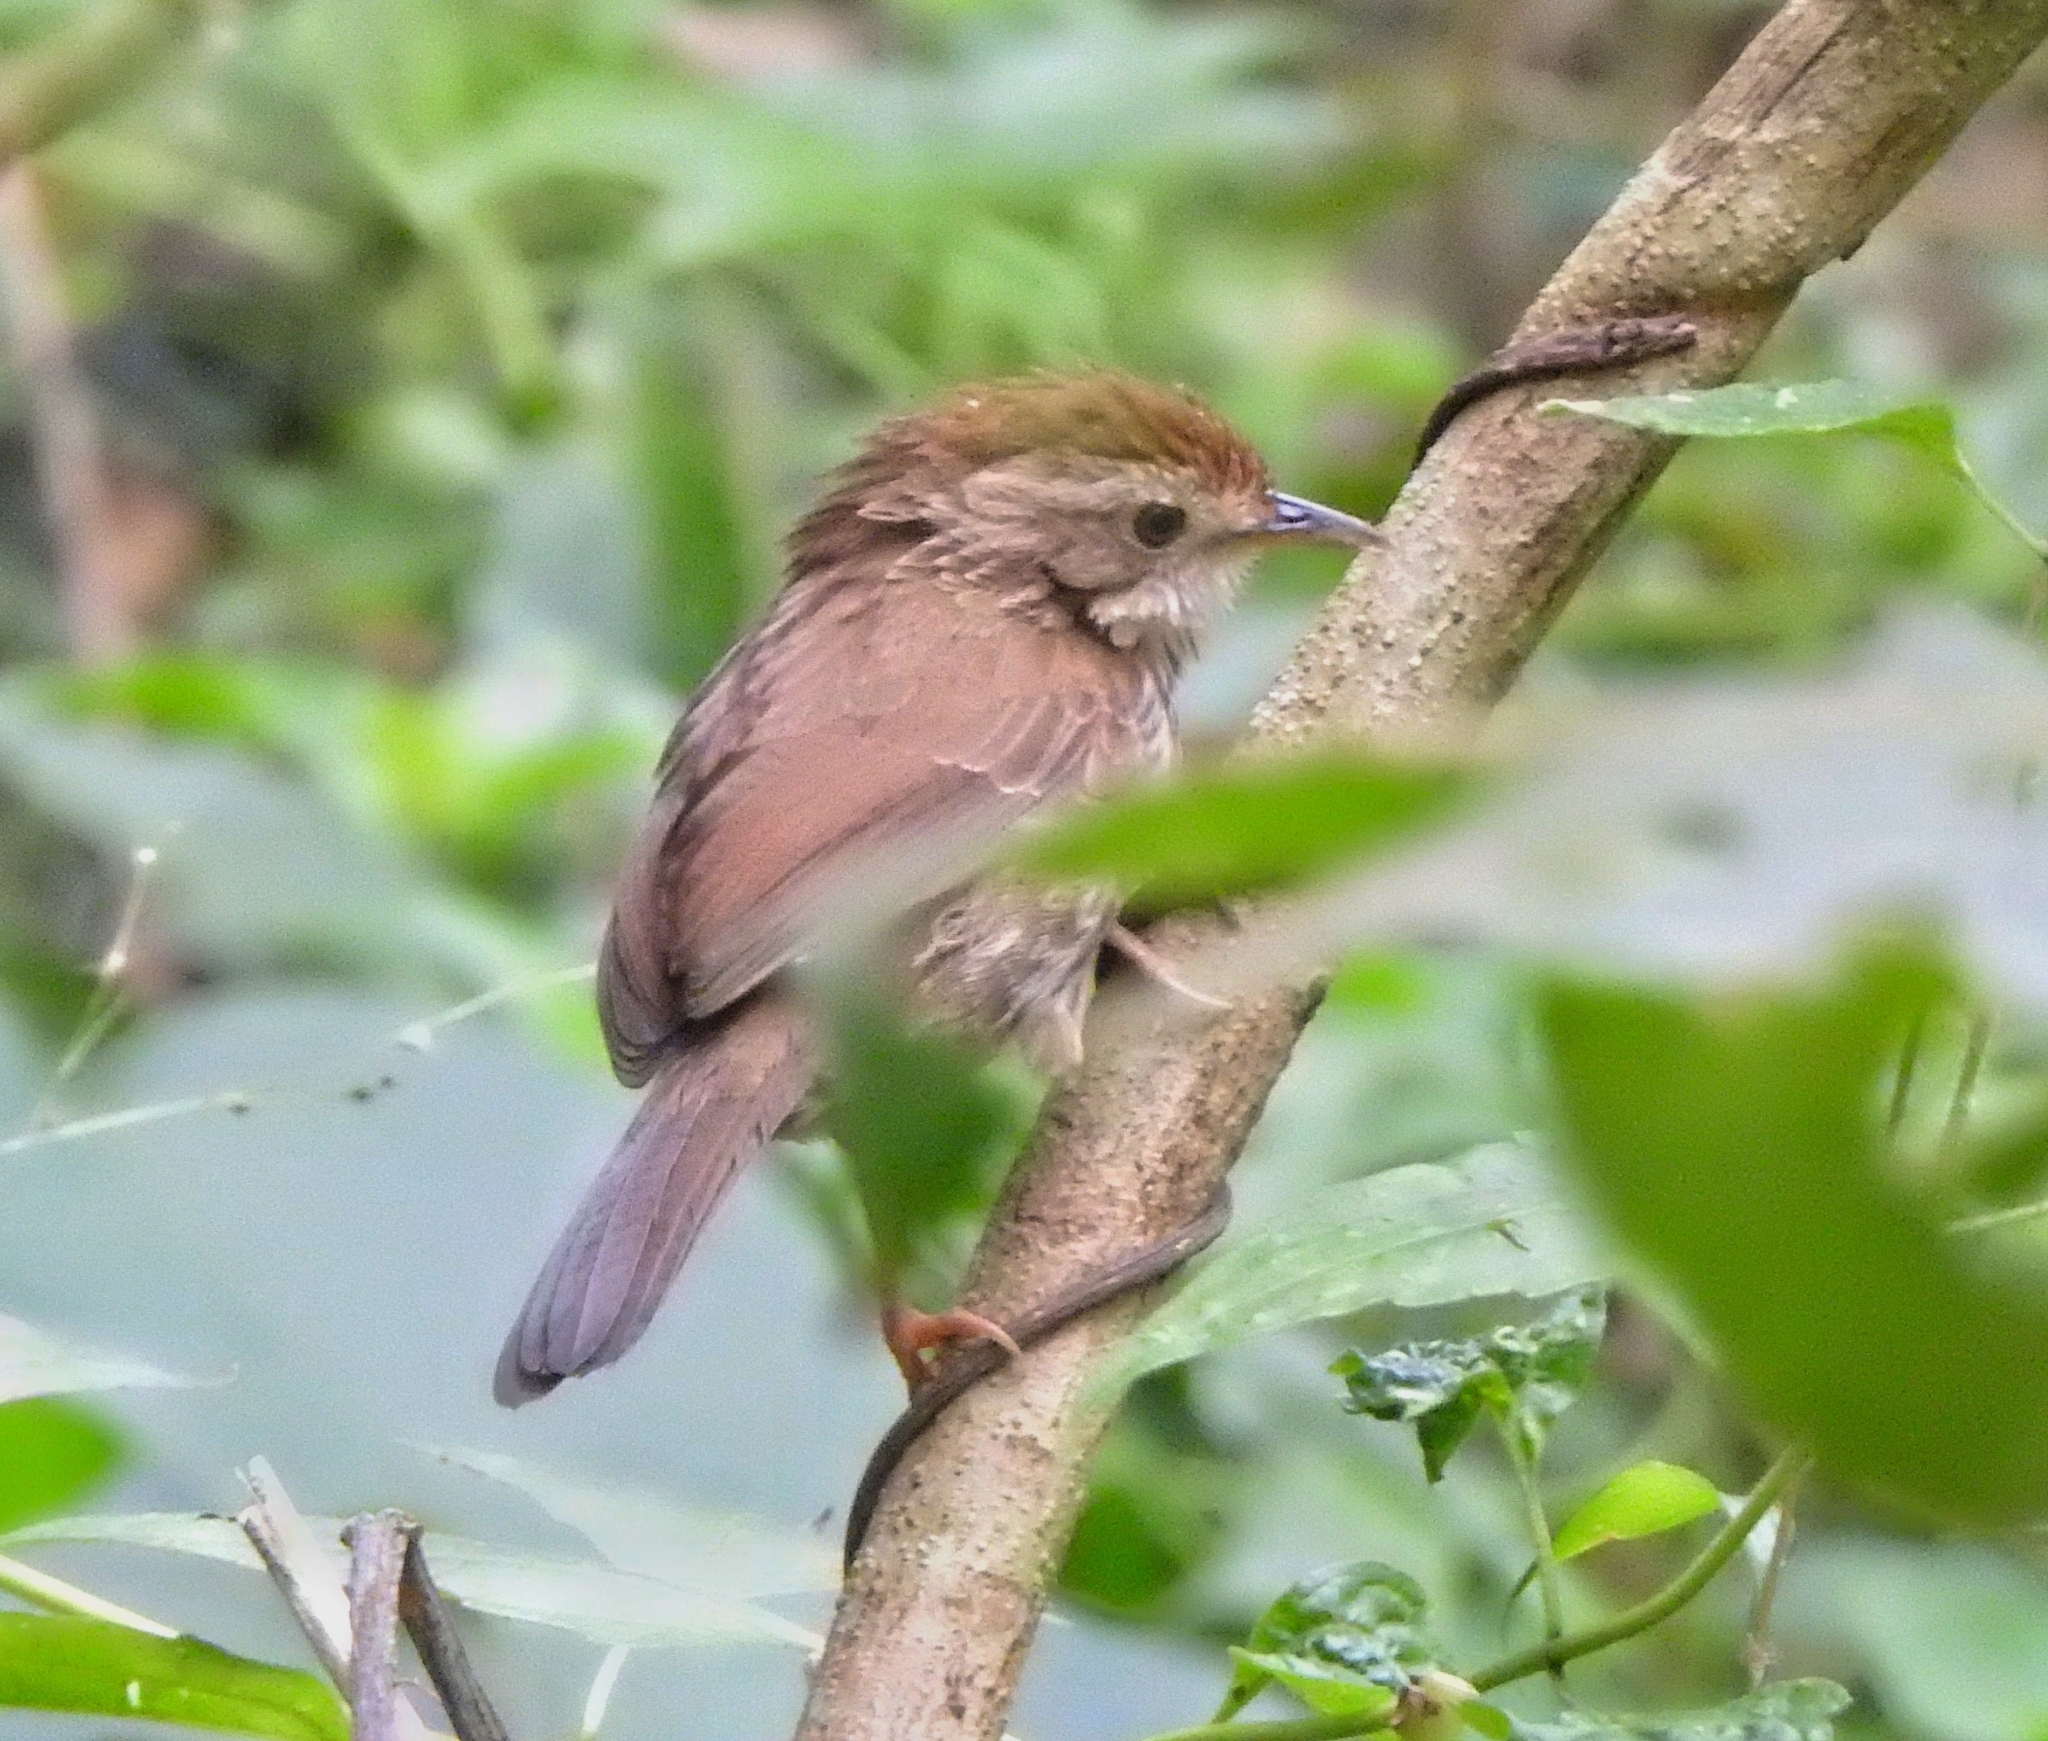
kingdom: Animalia
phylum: Chordata
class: Aves
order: Passeriformes
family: Pellorneidae
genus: Pellorneum
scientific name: Pellorneum ruficeps
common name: Puff-throated babbler
